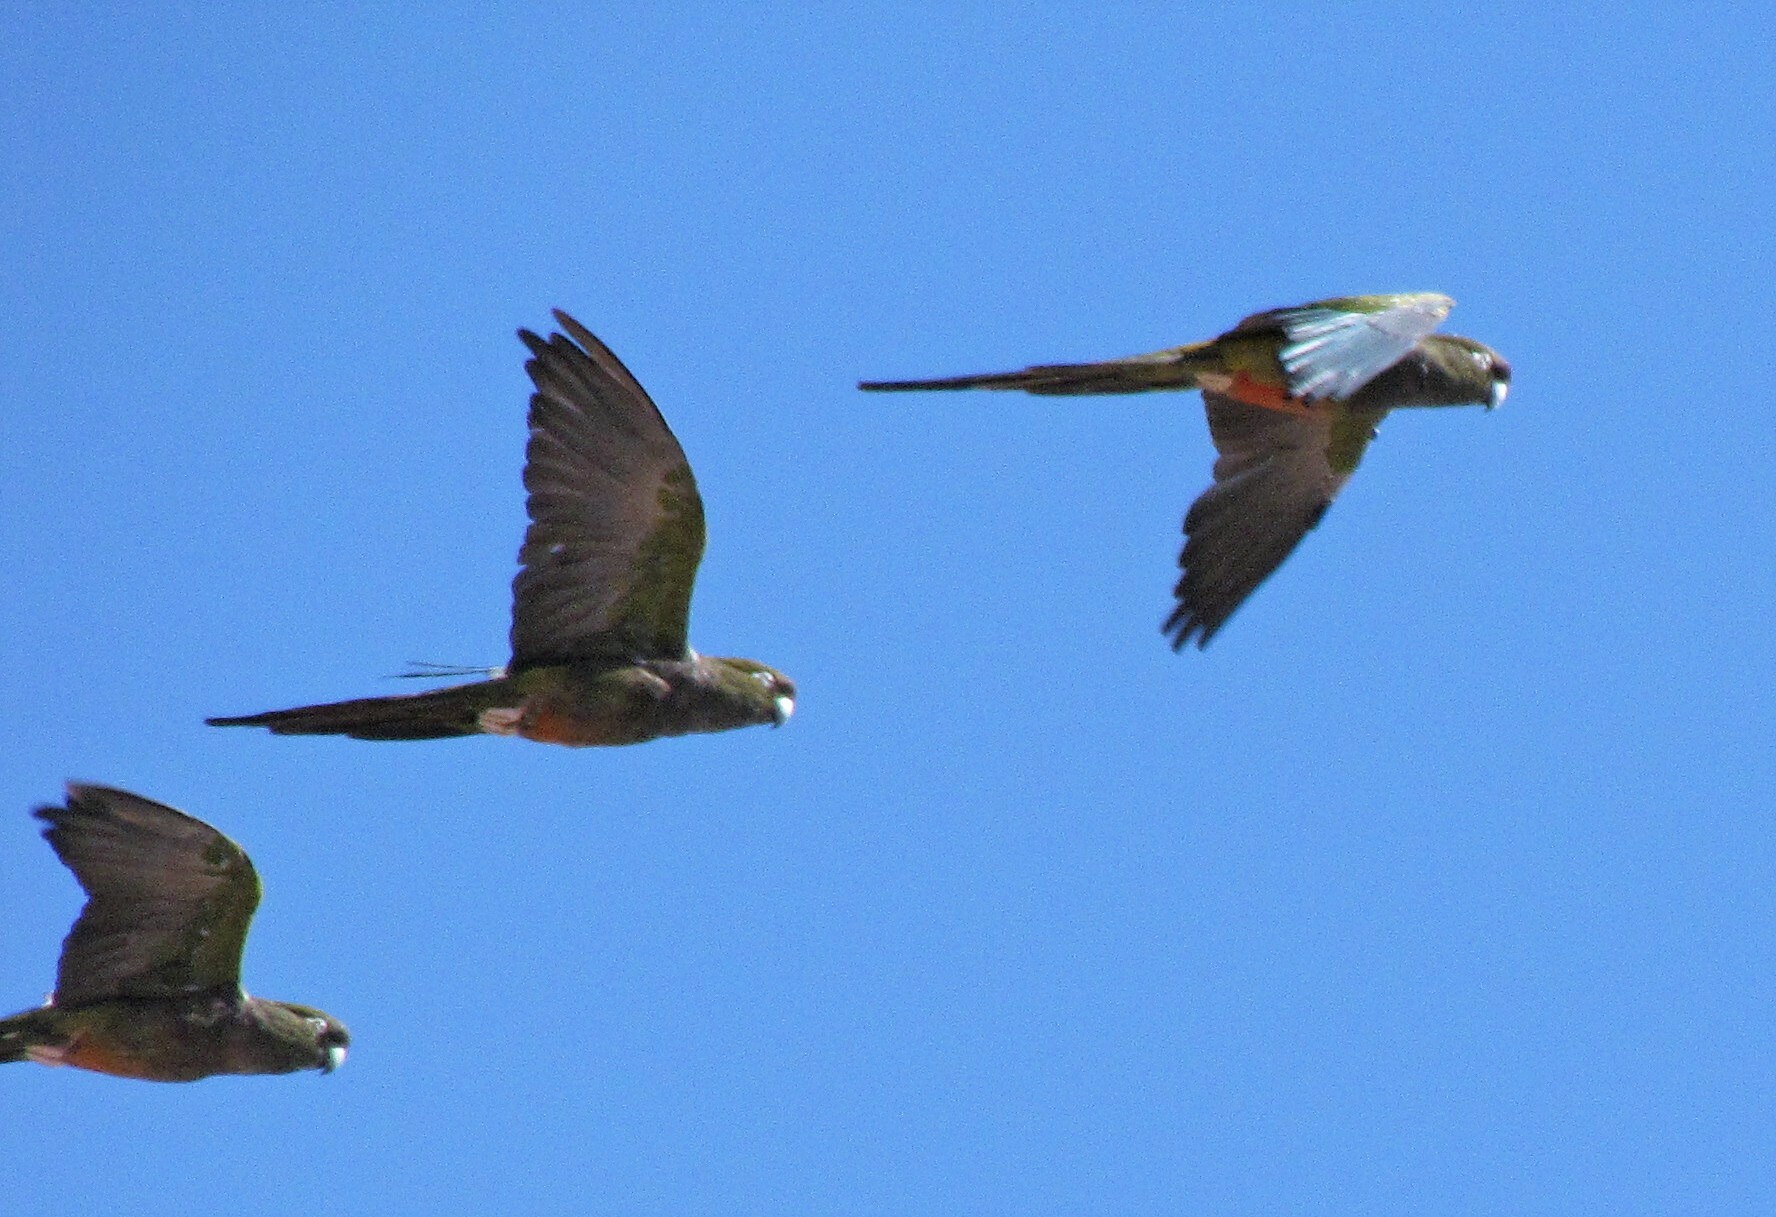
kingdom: Animalia
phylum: Chordata
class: Aves
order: Psittaciformes
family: Psittacidae
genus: Cyanoliseus
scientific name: Cyanoliseus patagonus
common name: Burrowing parrot
